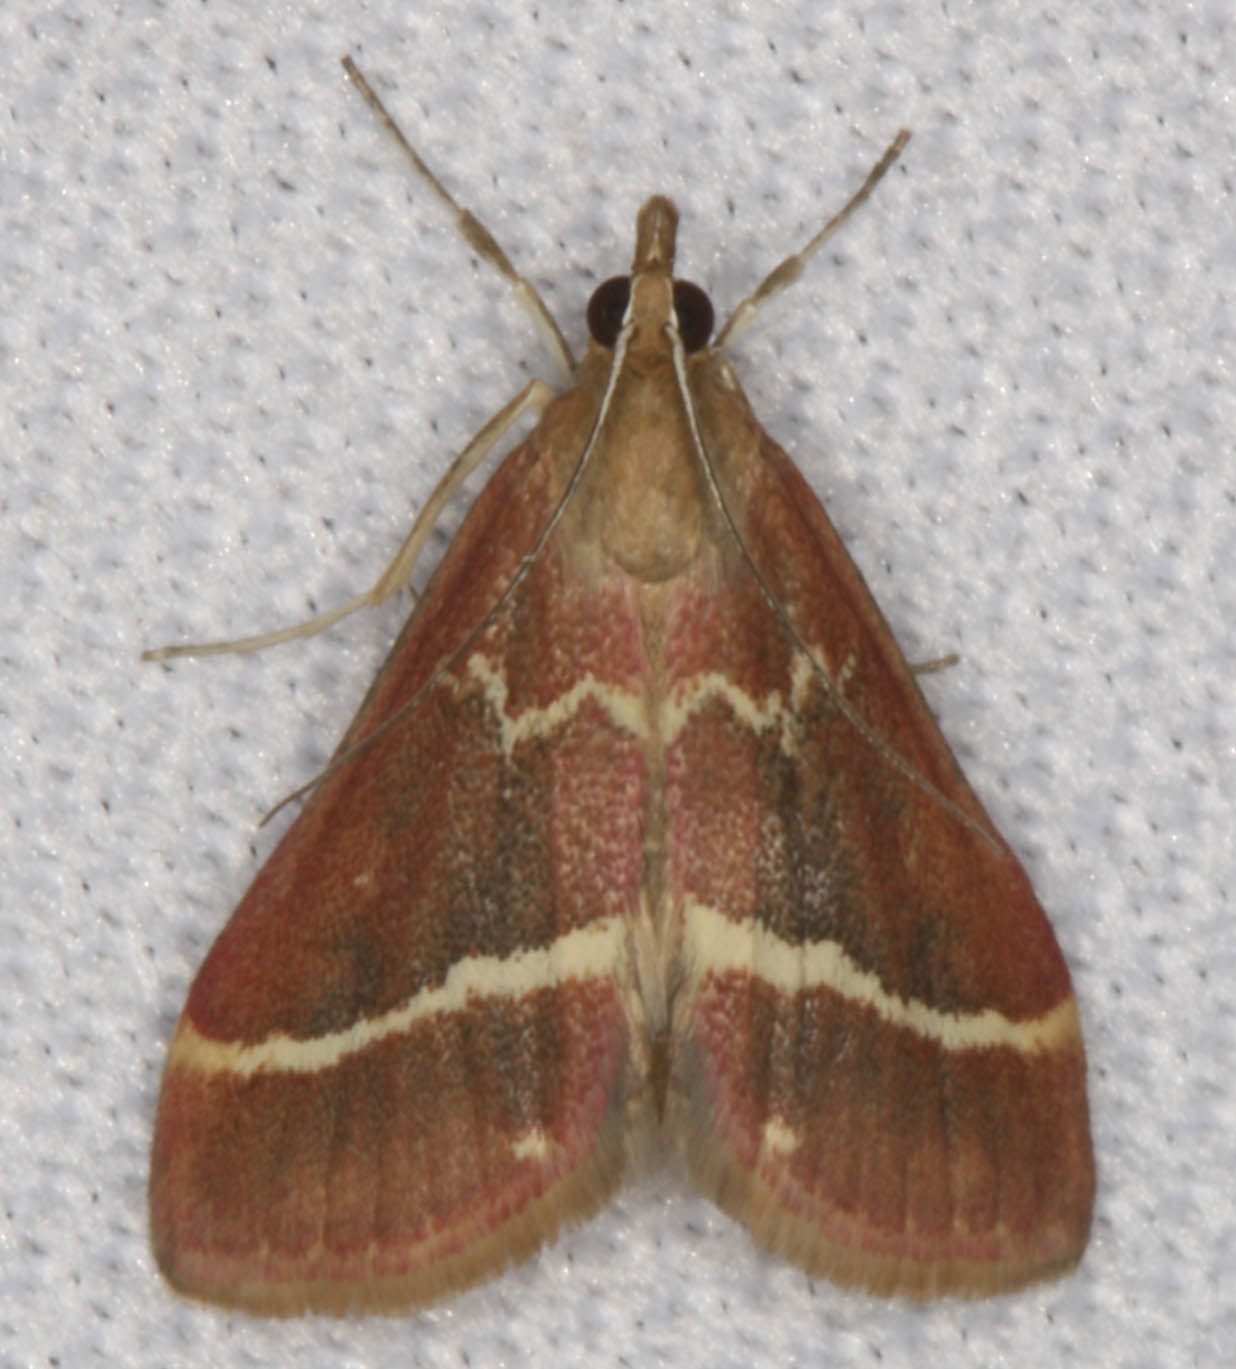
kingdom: Animalia
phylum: Arthropoda
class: Insecta
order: Lepidoptera
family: Crambidae
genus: Pyrausta
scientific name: Pyrausta volupialis
